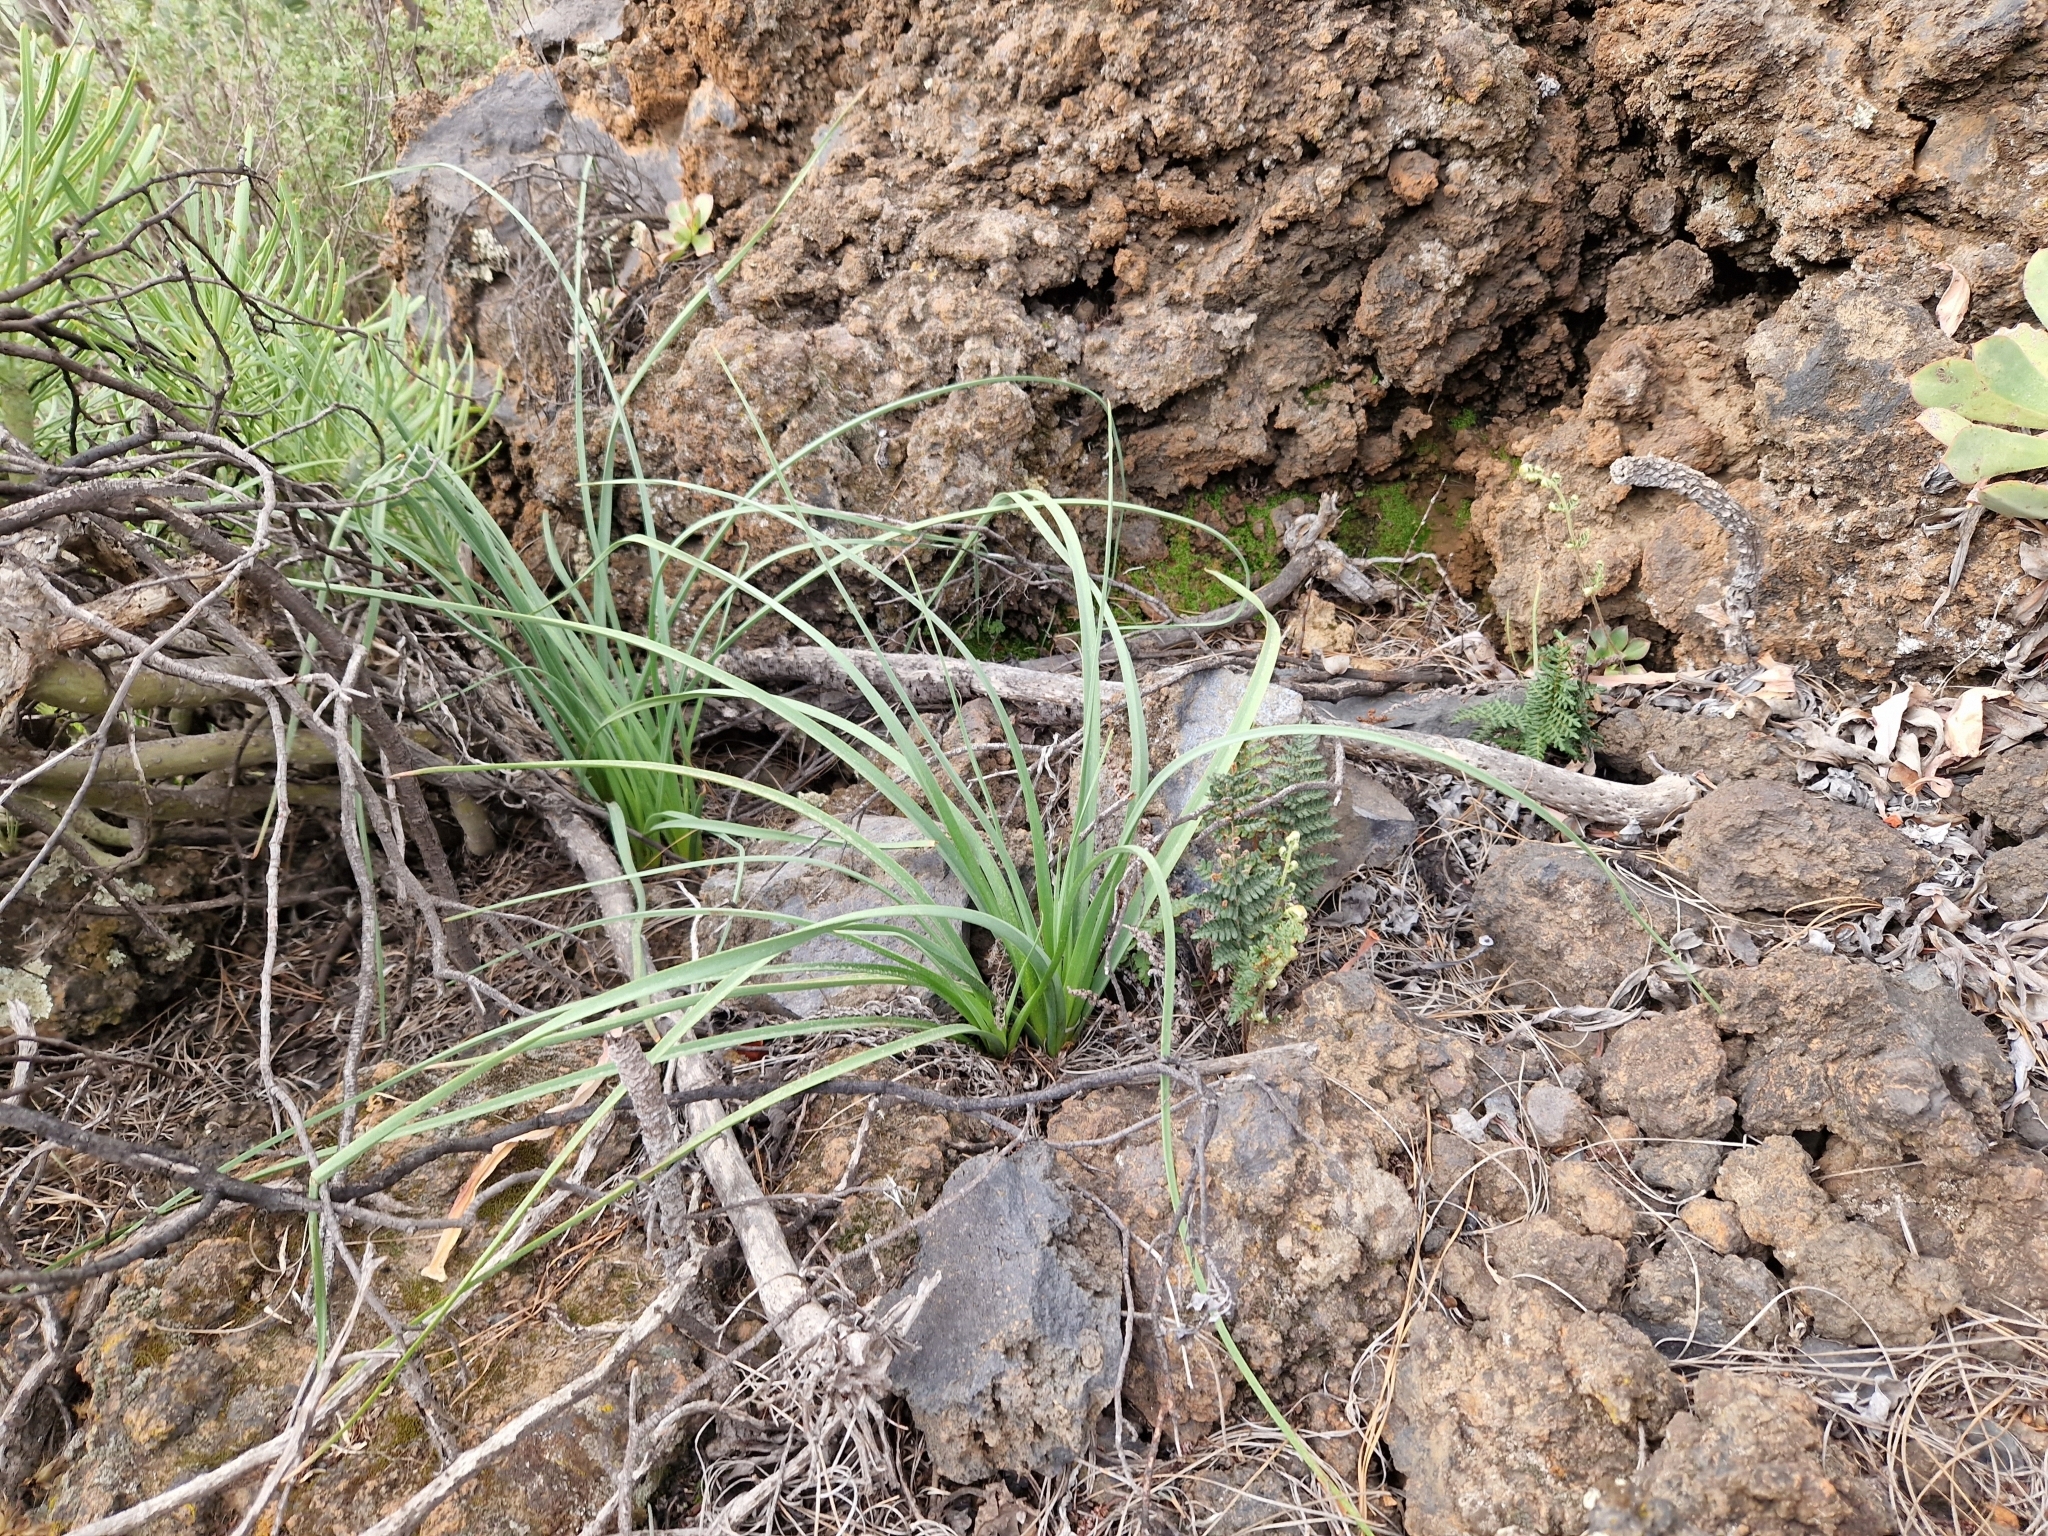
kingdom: Plantae
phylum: Tracheophyta
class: Liliopsida
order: Asparagales
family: Asphodelaceae
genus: Asphodelus
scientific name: Asphodelus ramosus
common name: Silverrod
